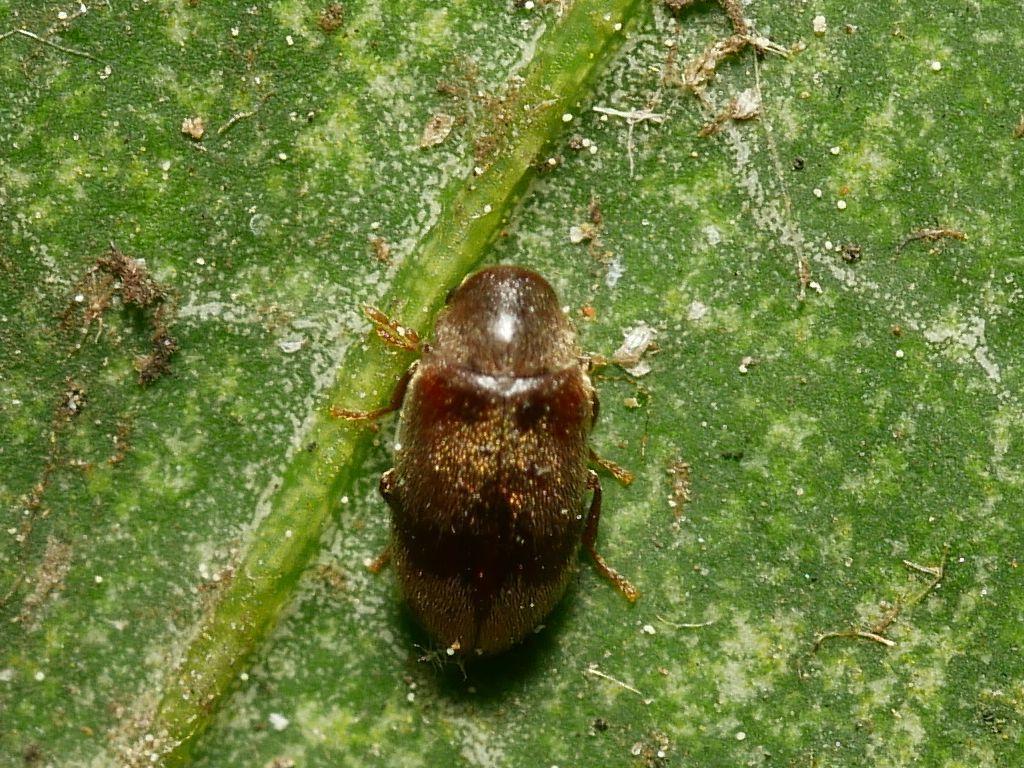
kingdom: Animalia
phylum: Arthropoda
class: Insecta
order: Coleoptera
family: Ptinidae
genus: Ochina
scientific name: Ochina ptinoides
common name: Ivy boring beetle
